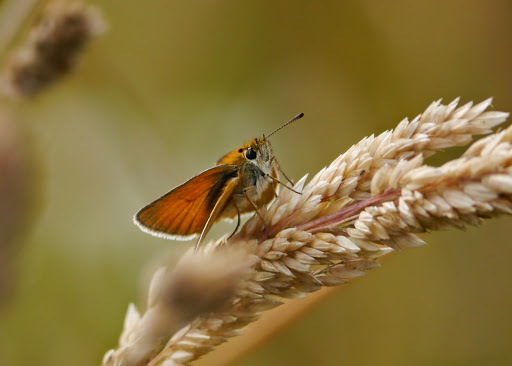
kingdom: Animalia
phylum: Arthropoda
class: Insecta
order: Lepidoptera
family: Hesperiidae
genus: Thymelicus
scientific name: Thymelicus lineola
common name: Essex skipper
